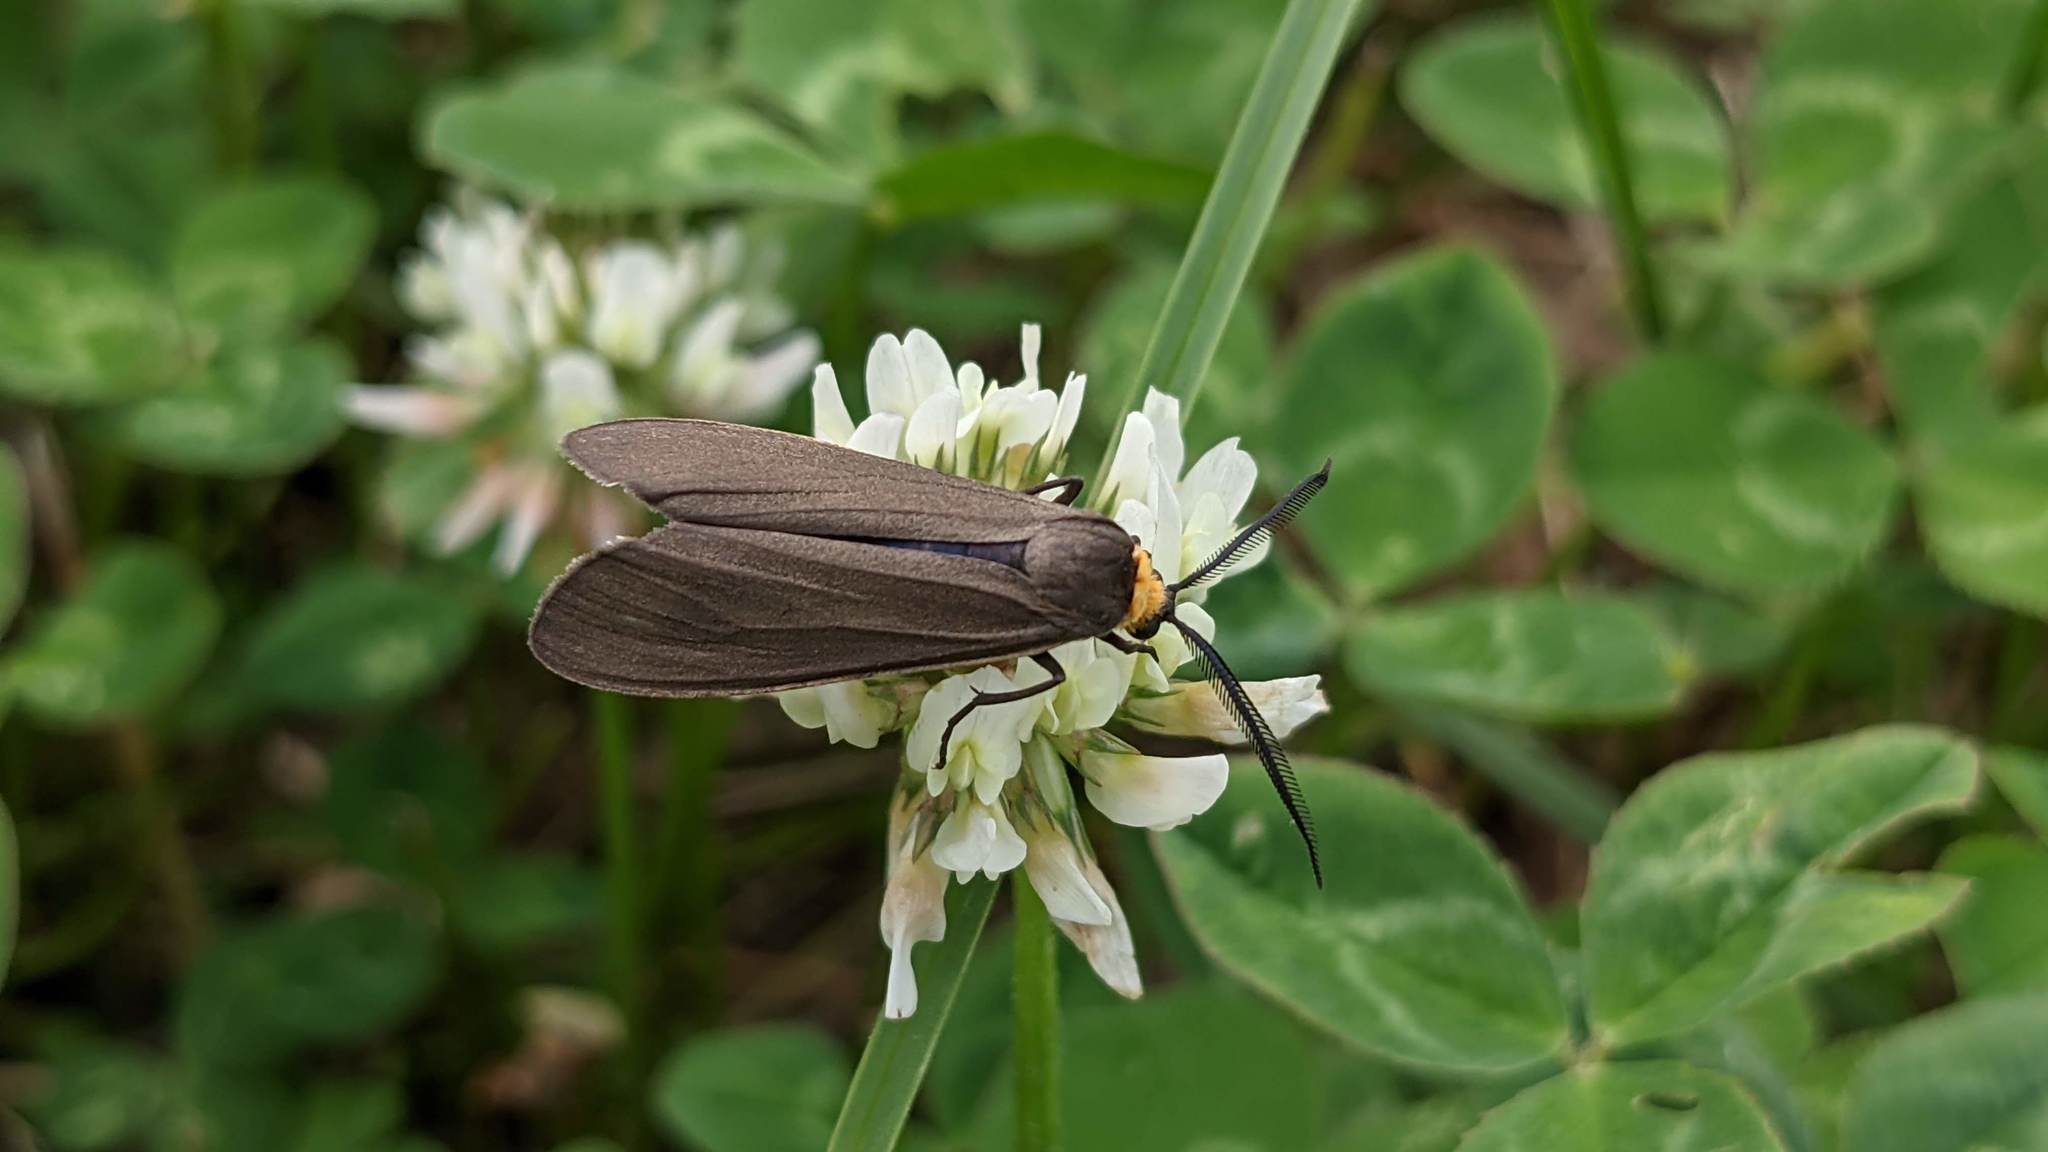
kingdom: Animalia
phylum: Arthropoda
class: Insecta
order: Lepidoptera
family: Erebidae
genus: Cisseps
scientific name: Cisseps fulvicollis
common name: Yellow-collared scape moth
